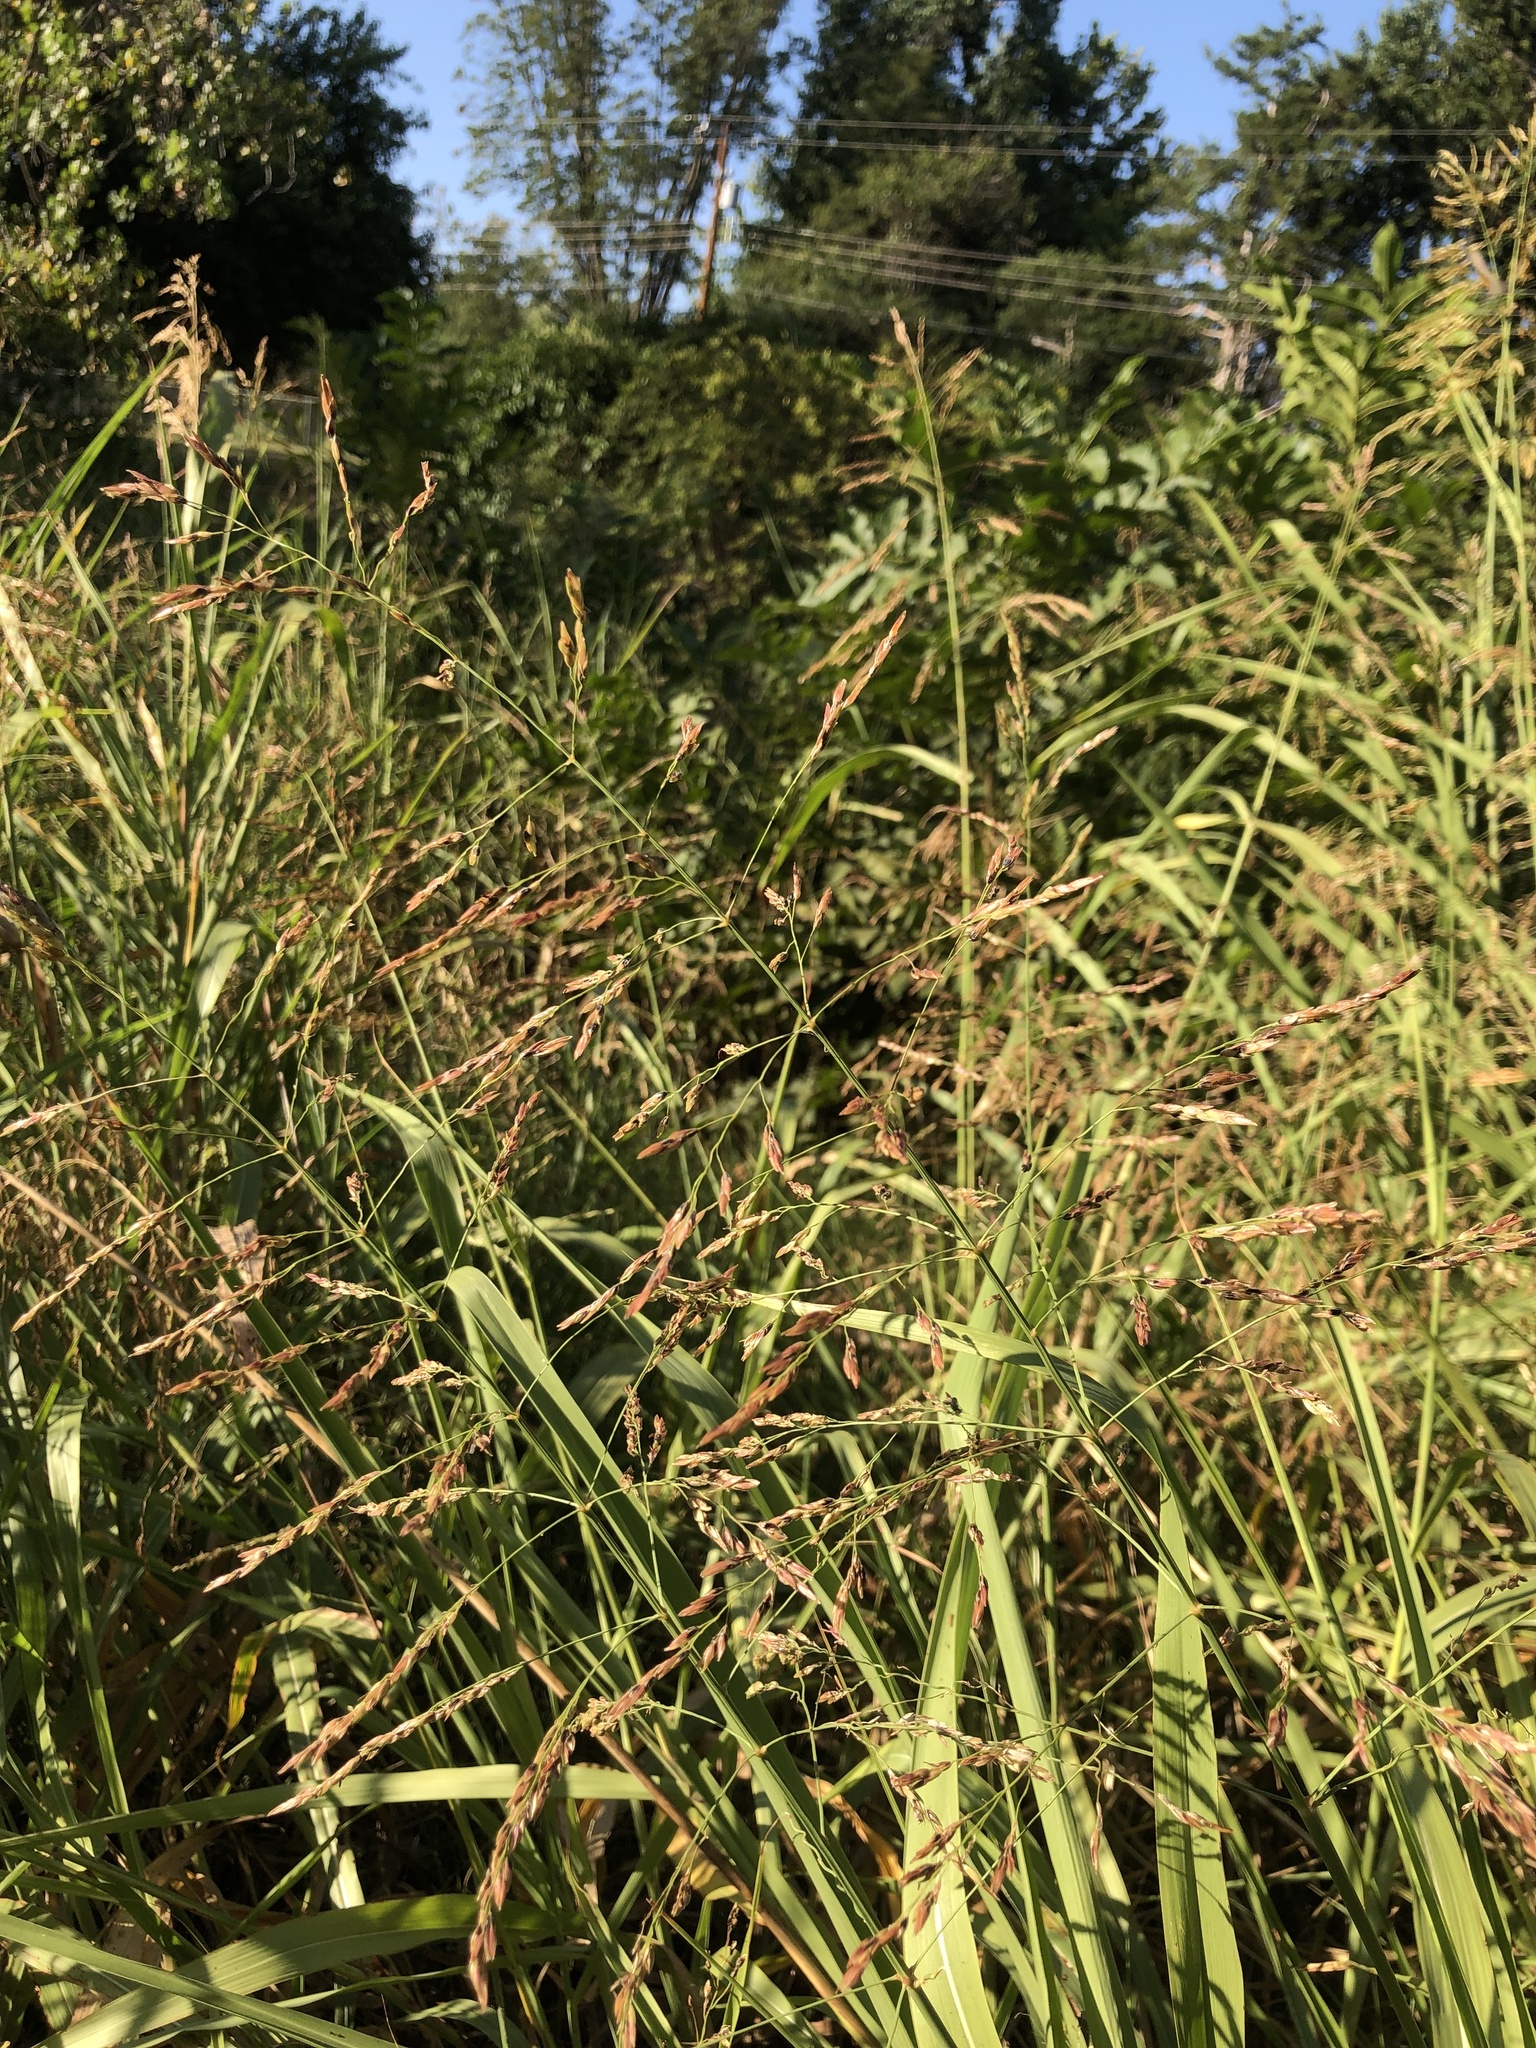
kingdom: Plantae
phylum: Tracheophyta
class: Liliopsida
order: Poales
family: Poaceae
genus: Sorghum
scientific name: Sorghum halepense
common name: Johnson-grass
